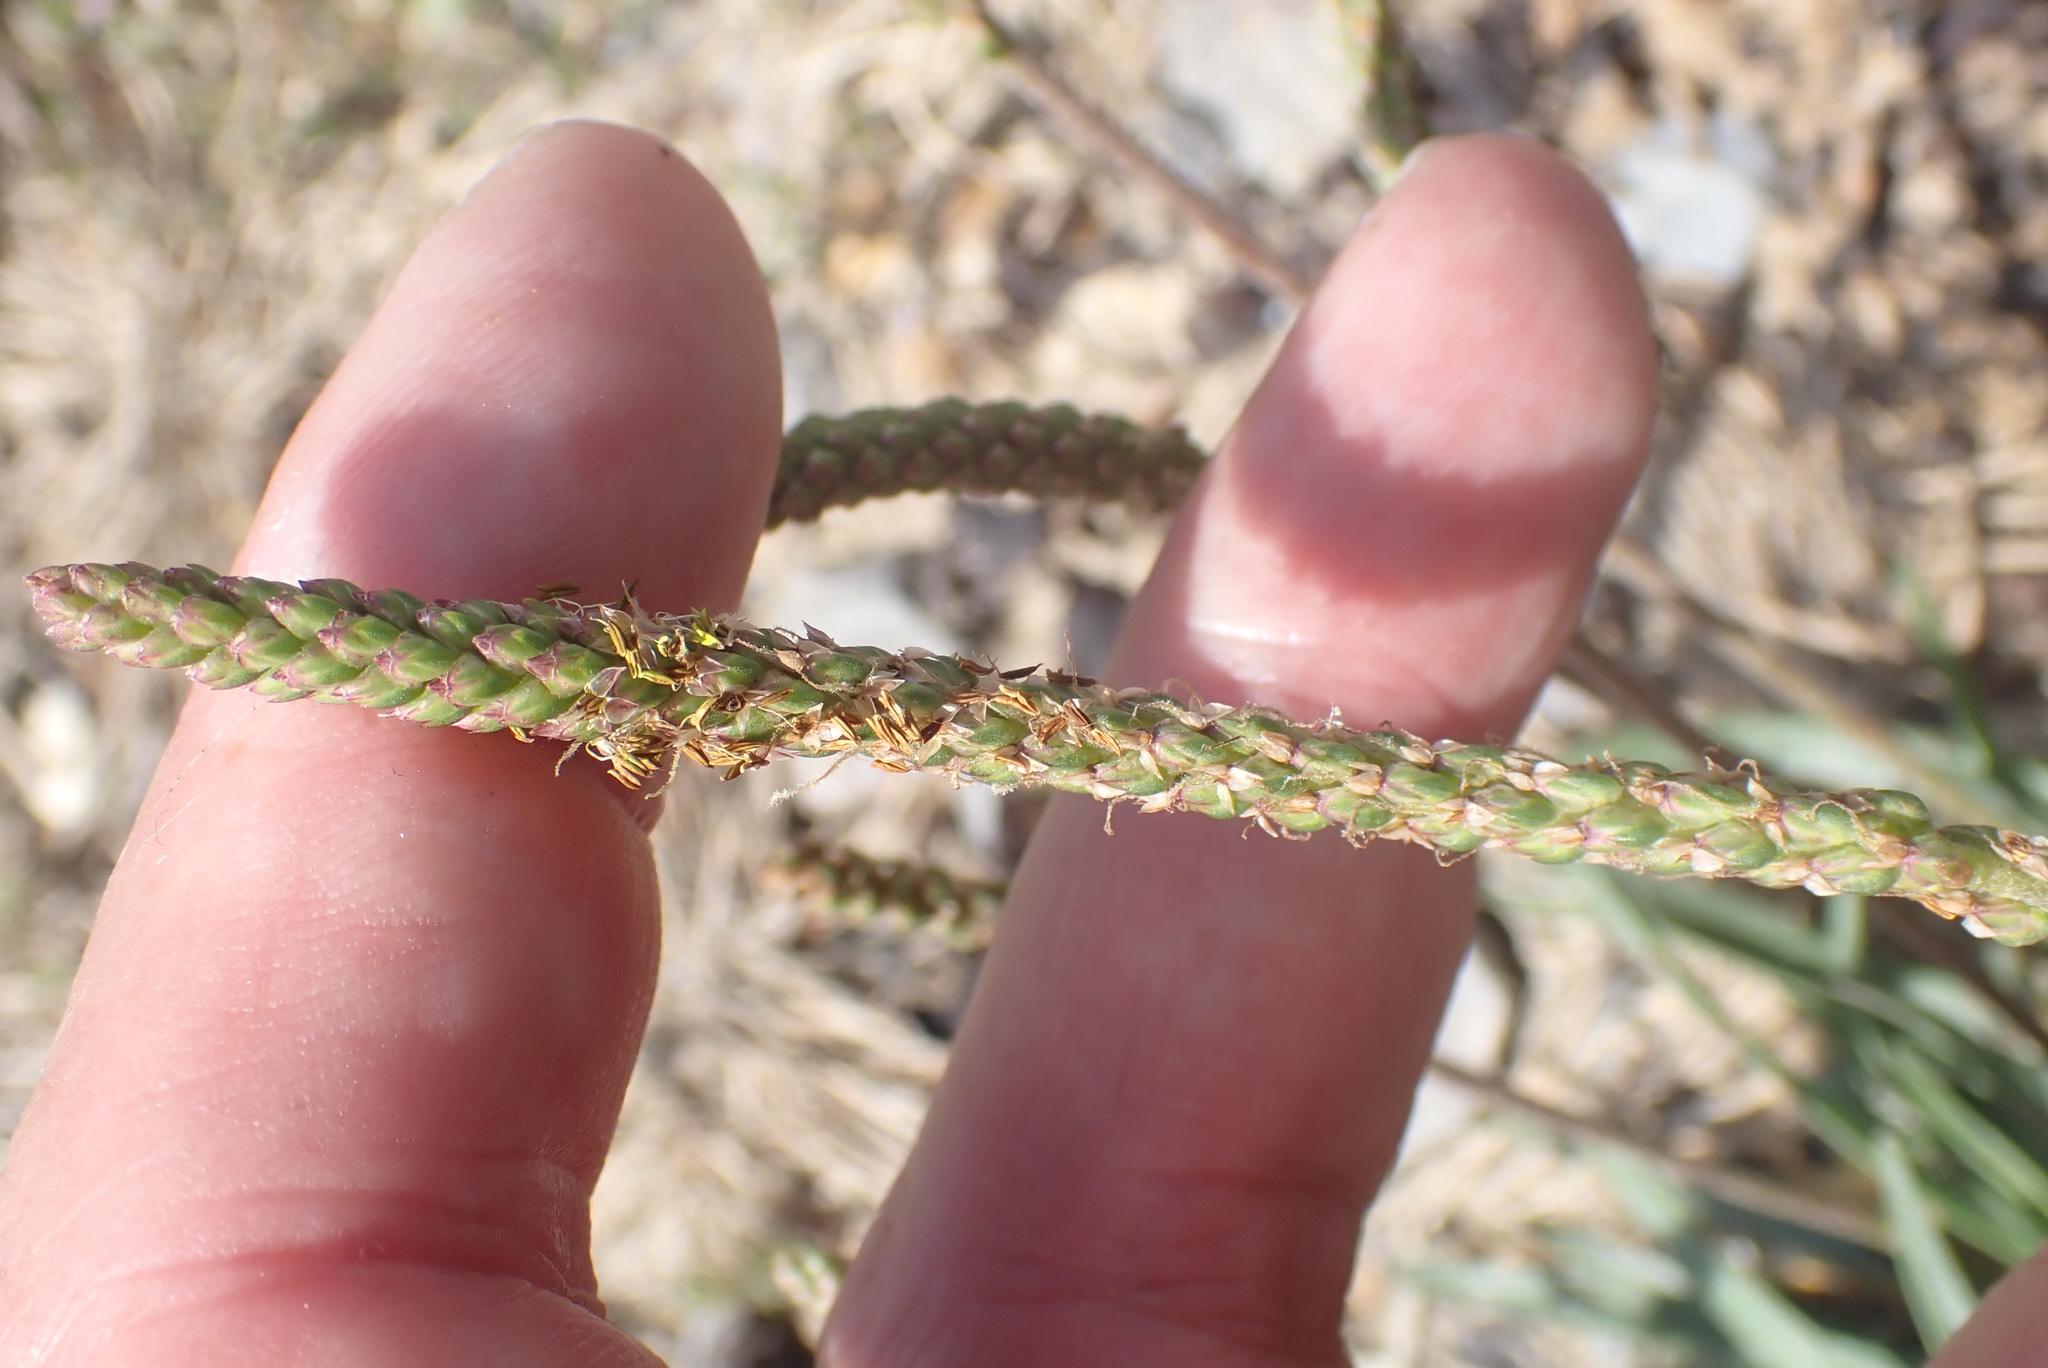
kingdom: Plantae
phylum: Tracheophyta
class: Magnoliopsida
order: Lamiales
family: Plantaginaceae
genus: Plantago
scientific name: Plantago maritima
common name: Sea plantain
